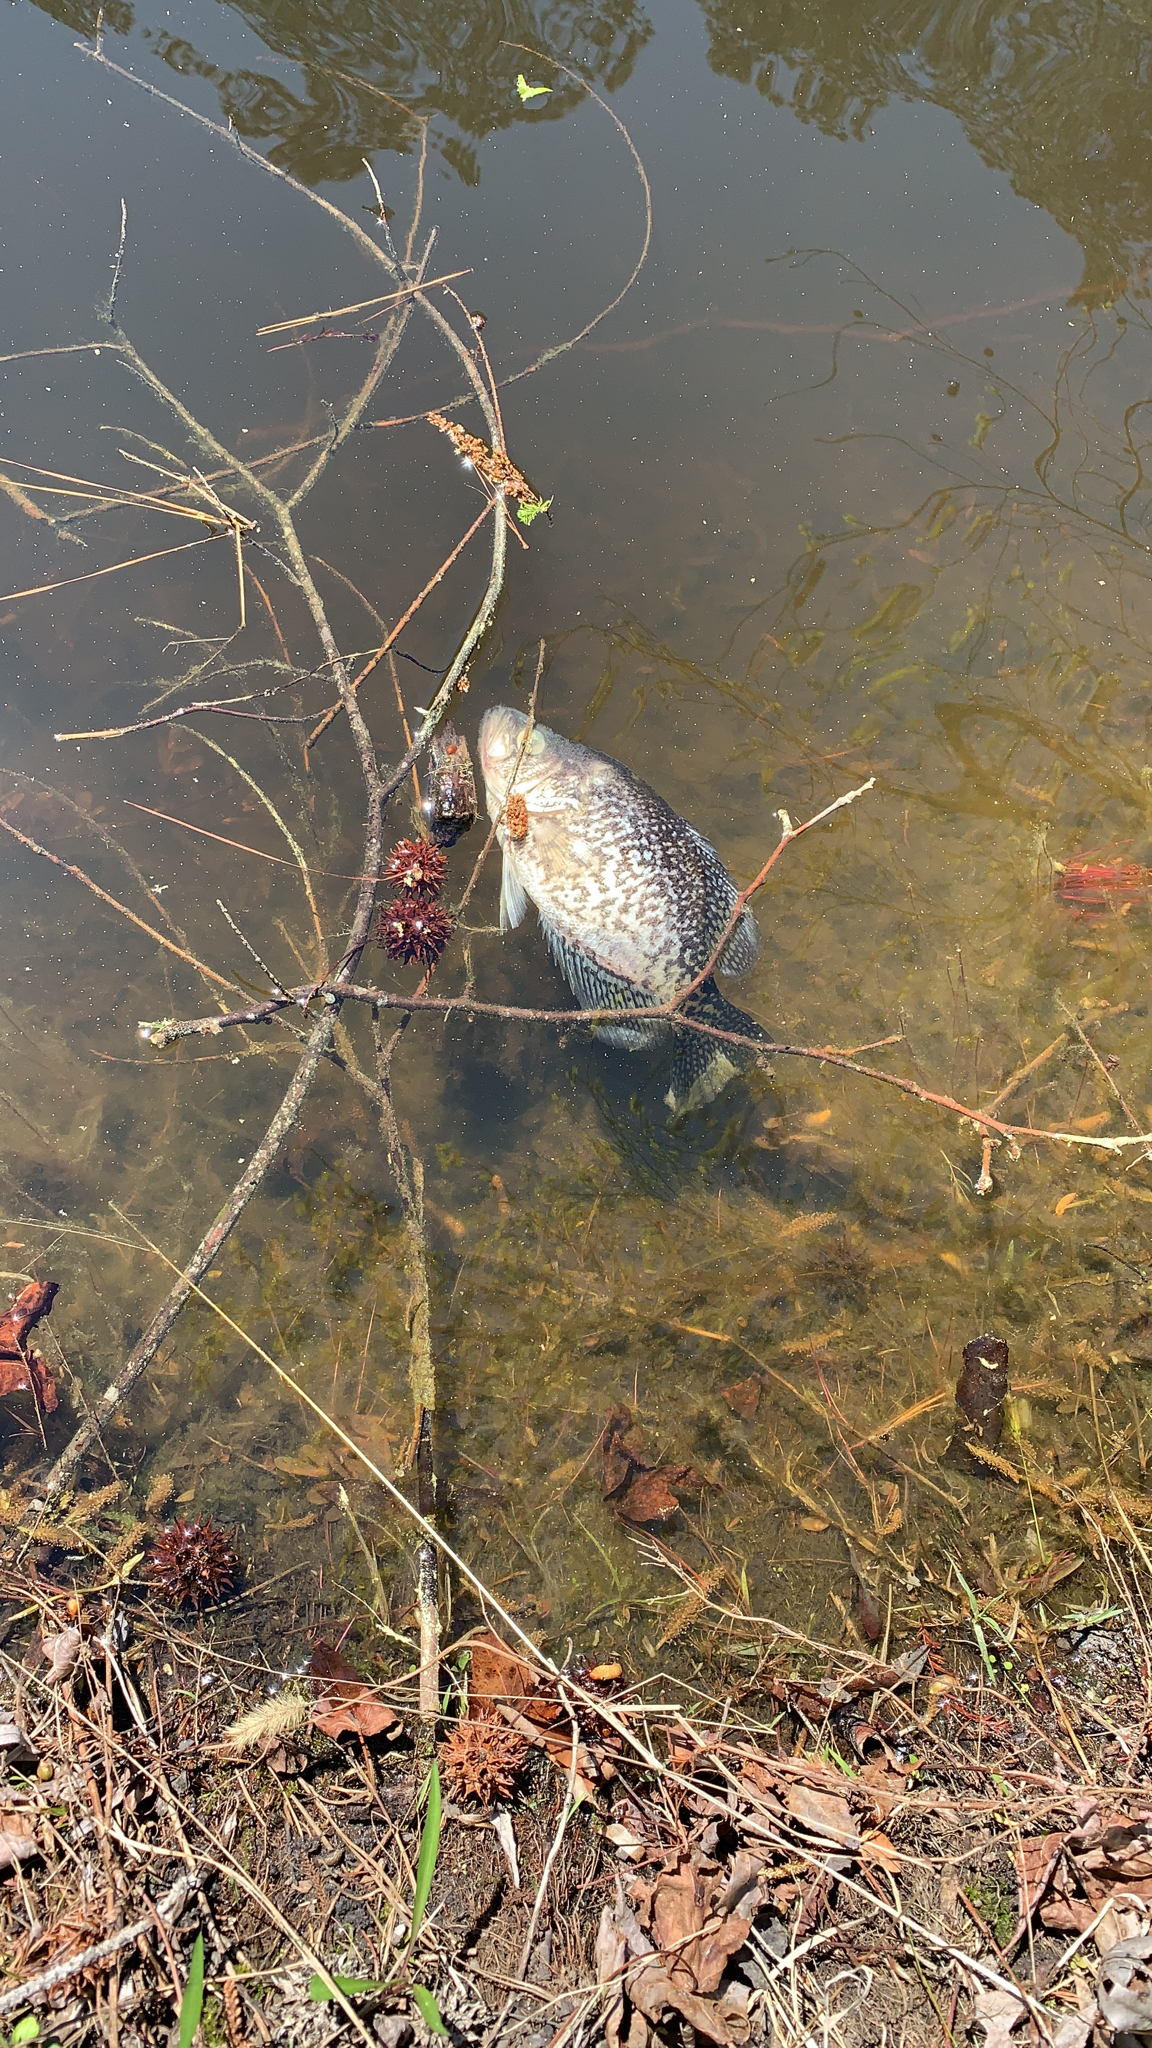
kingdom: Animalia
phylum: Chordata
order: Perciformes
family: Centrarchidae
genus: Pomoxis
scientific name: Pomoxis nigromaculatus
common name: Black crappie
